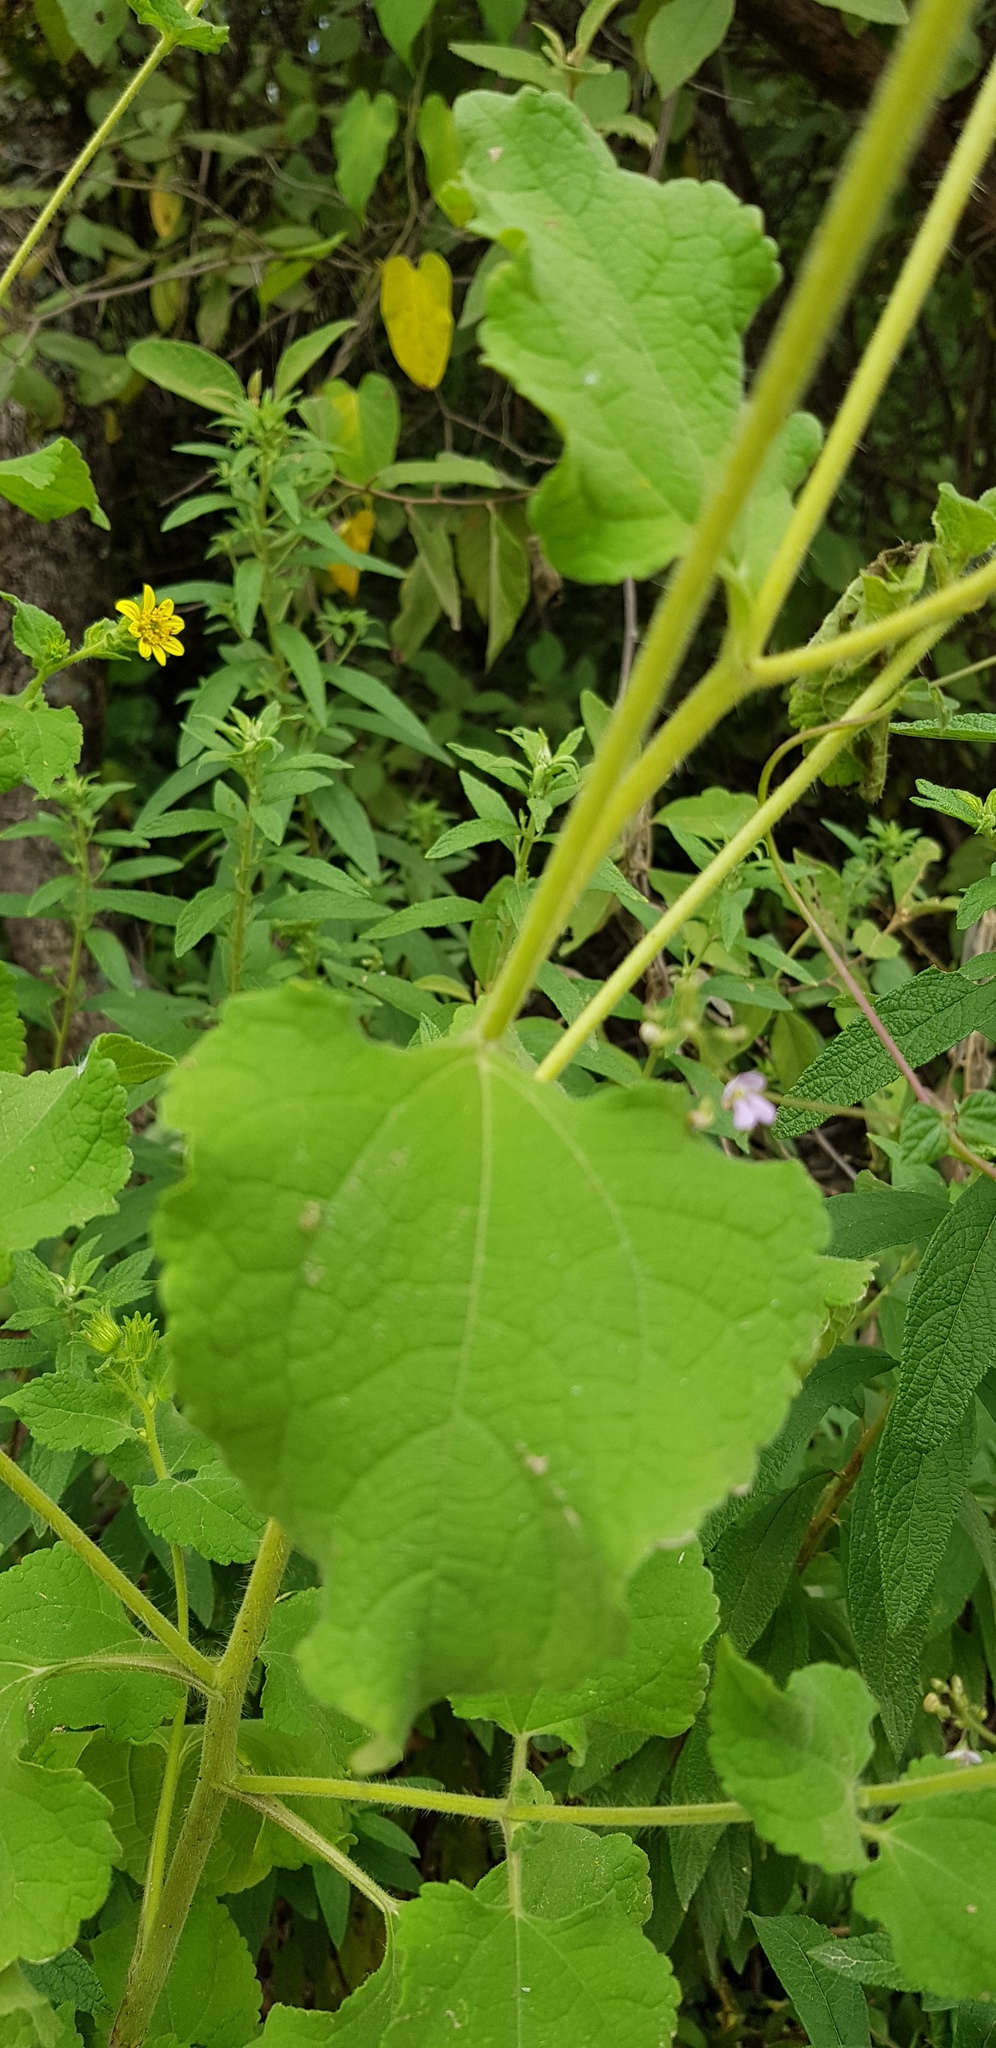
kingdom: Plantae
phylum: Tracheophyta
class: Magnoliopsida
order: Asterales
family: Asteraceae
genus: Simsia
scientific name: Simsia foetida
